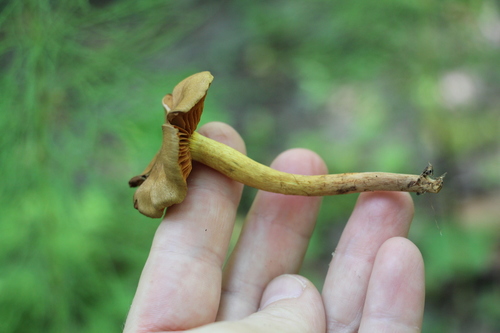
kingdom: Fungi
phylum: Basidiomycota
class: Agaricomycetes
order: Agaricales
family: Cortinariaceae
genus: Cortinarius
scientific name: Cortinarius cinnamomeus
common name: Cinnamon webcap
